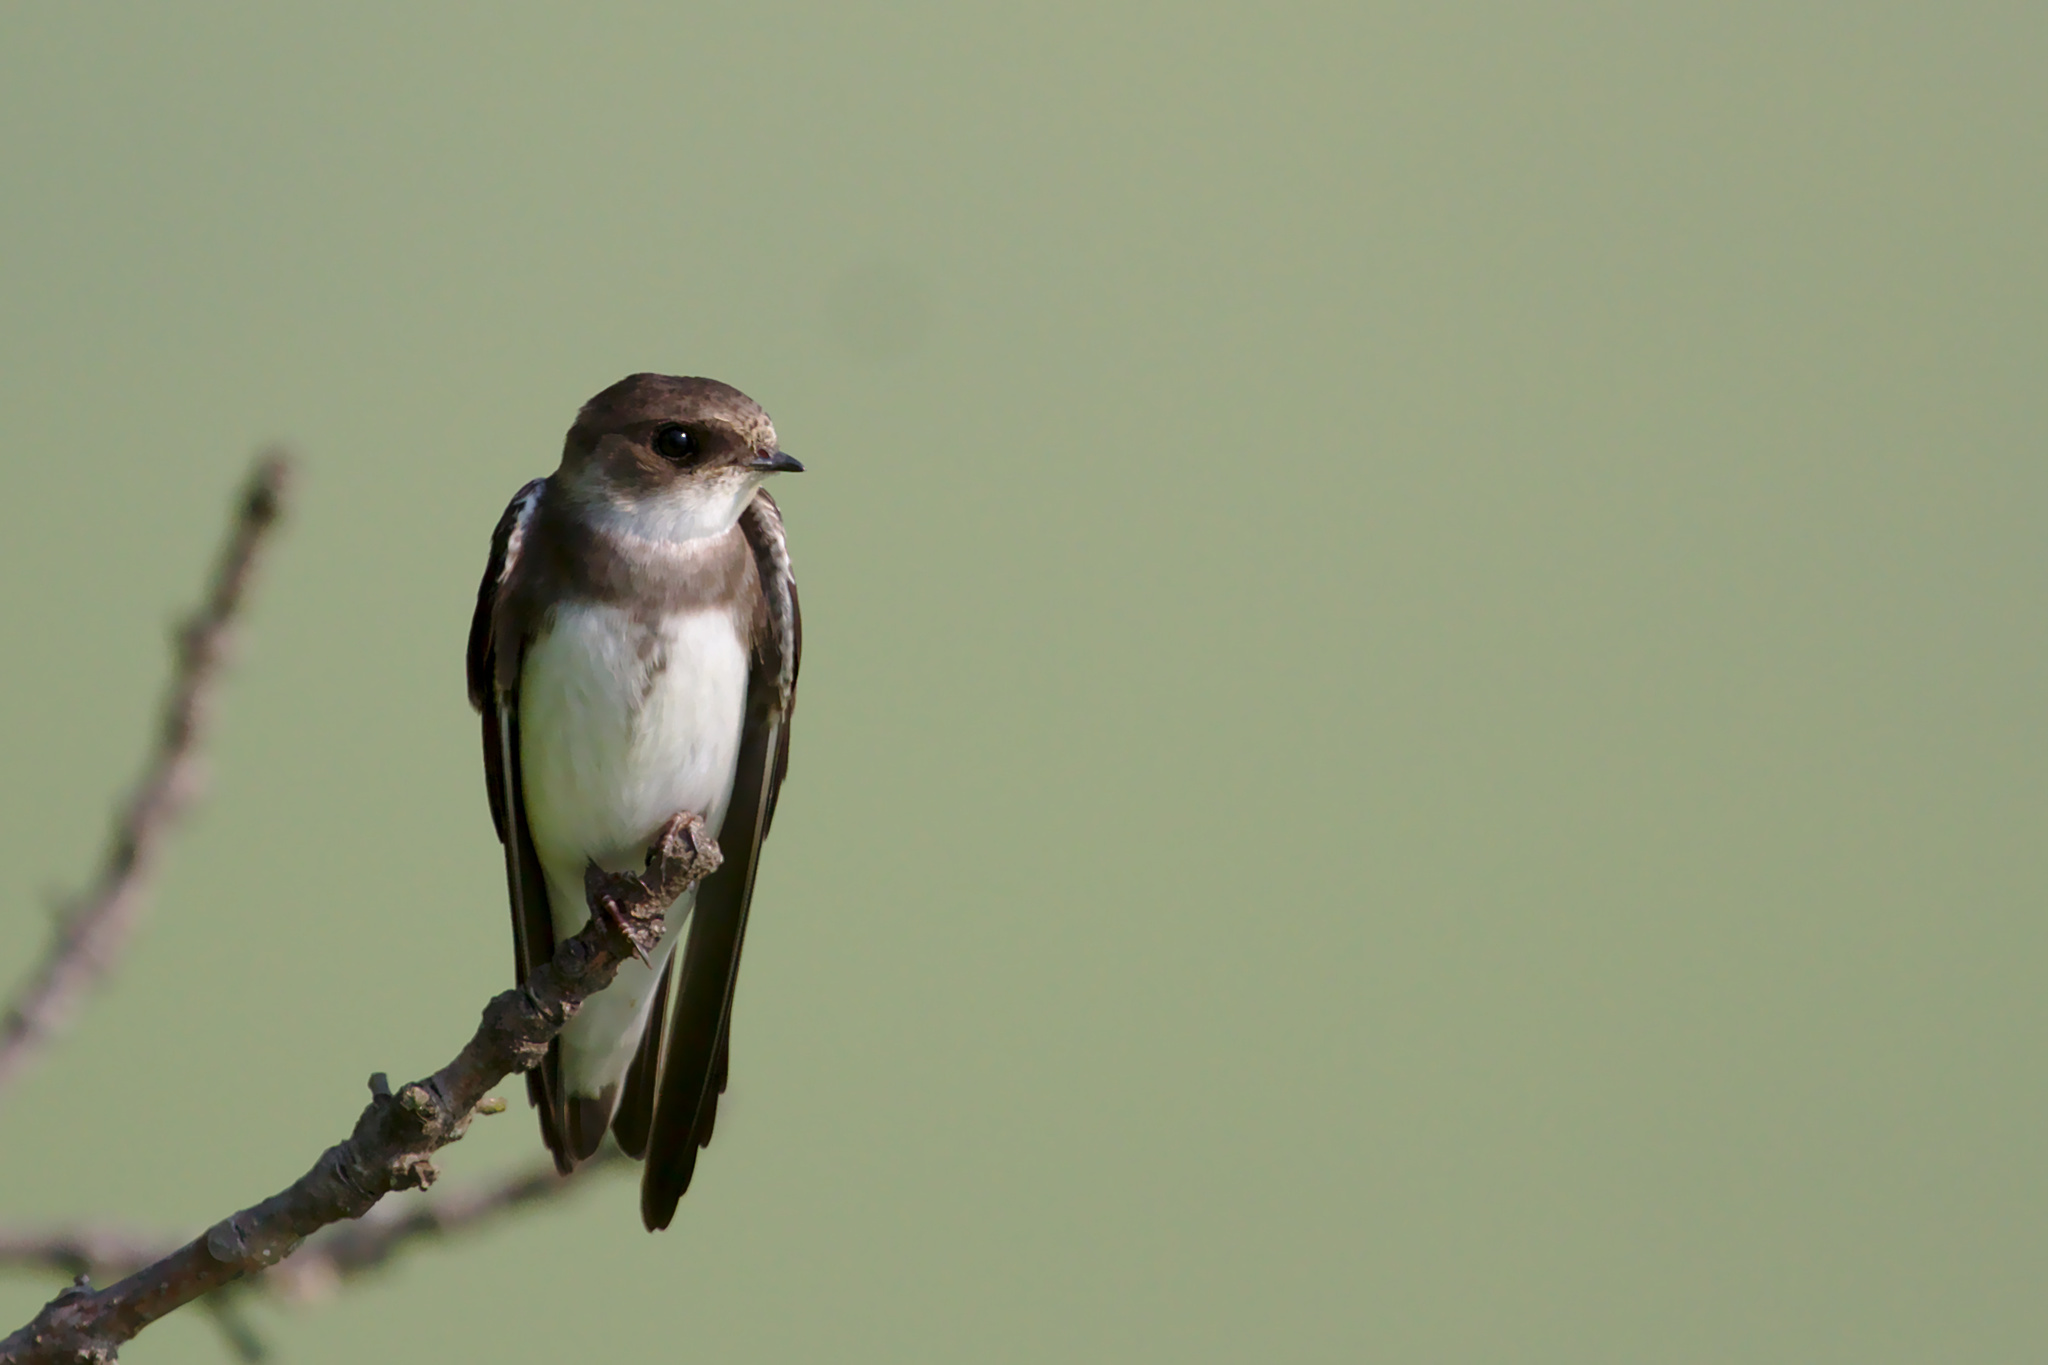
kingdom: Animalia
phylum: Chordata
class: Aves
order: Passeriformes
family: Hirundinidae
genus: Riparia
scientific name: Riparia riparia
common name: Sand martin
